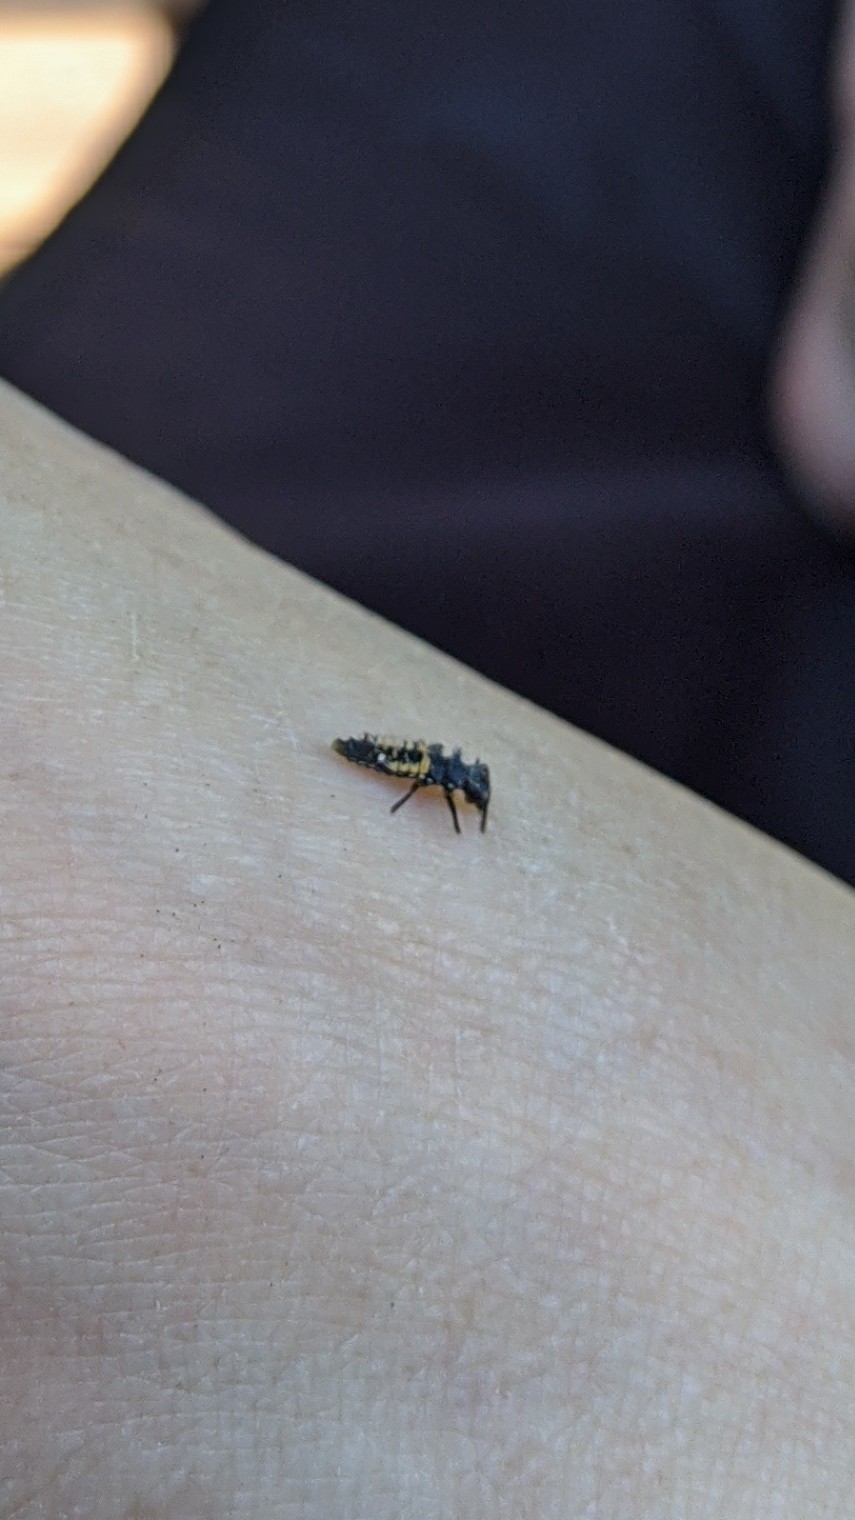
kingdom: Animalia
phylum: Arthropoda
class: Insecta
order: Coleoptera
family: Coccinellidae
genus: Harmonia
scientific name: Harmonia axyridis
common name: Harlequin ladybird
